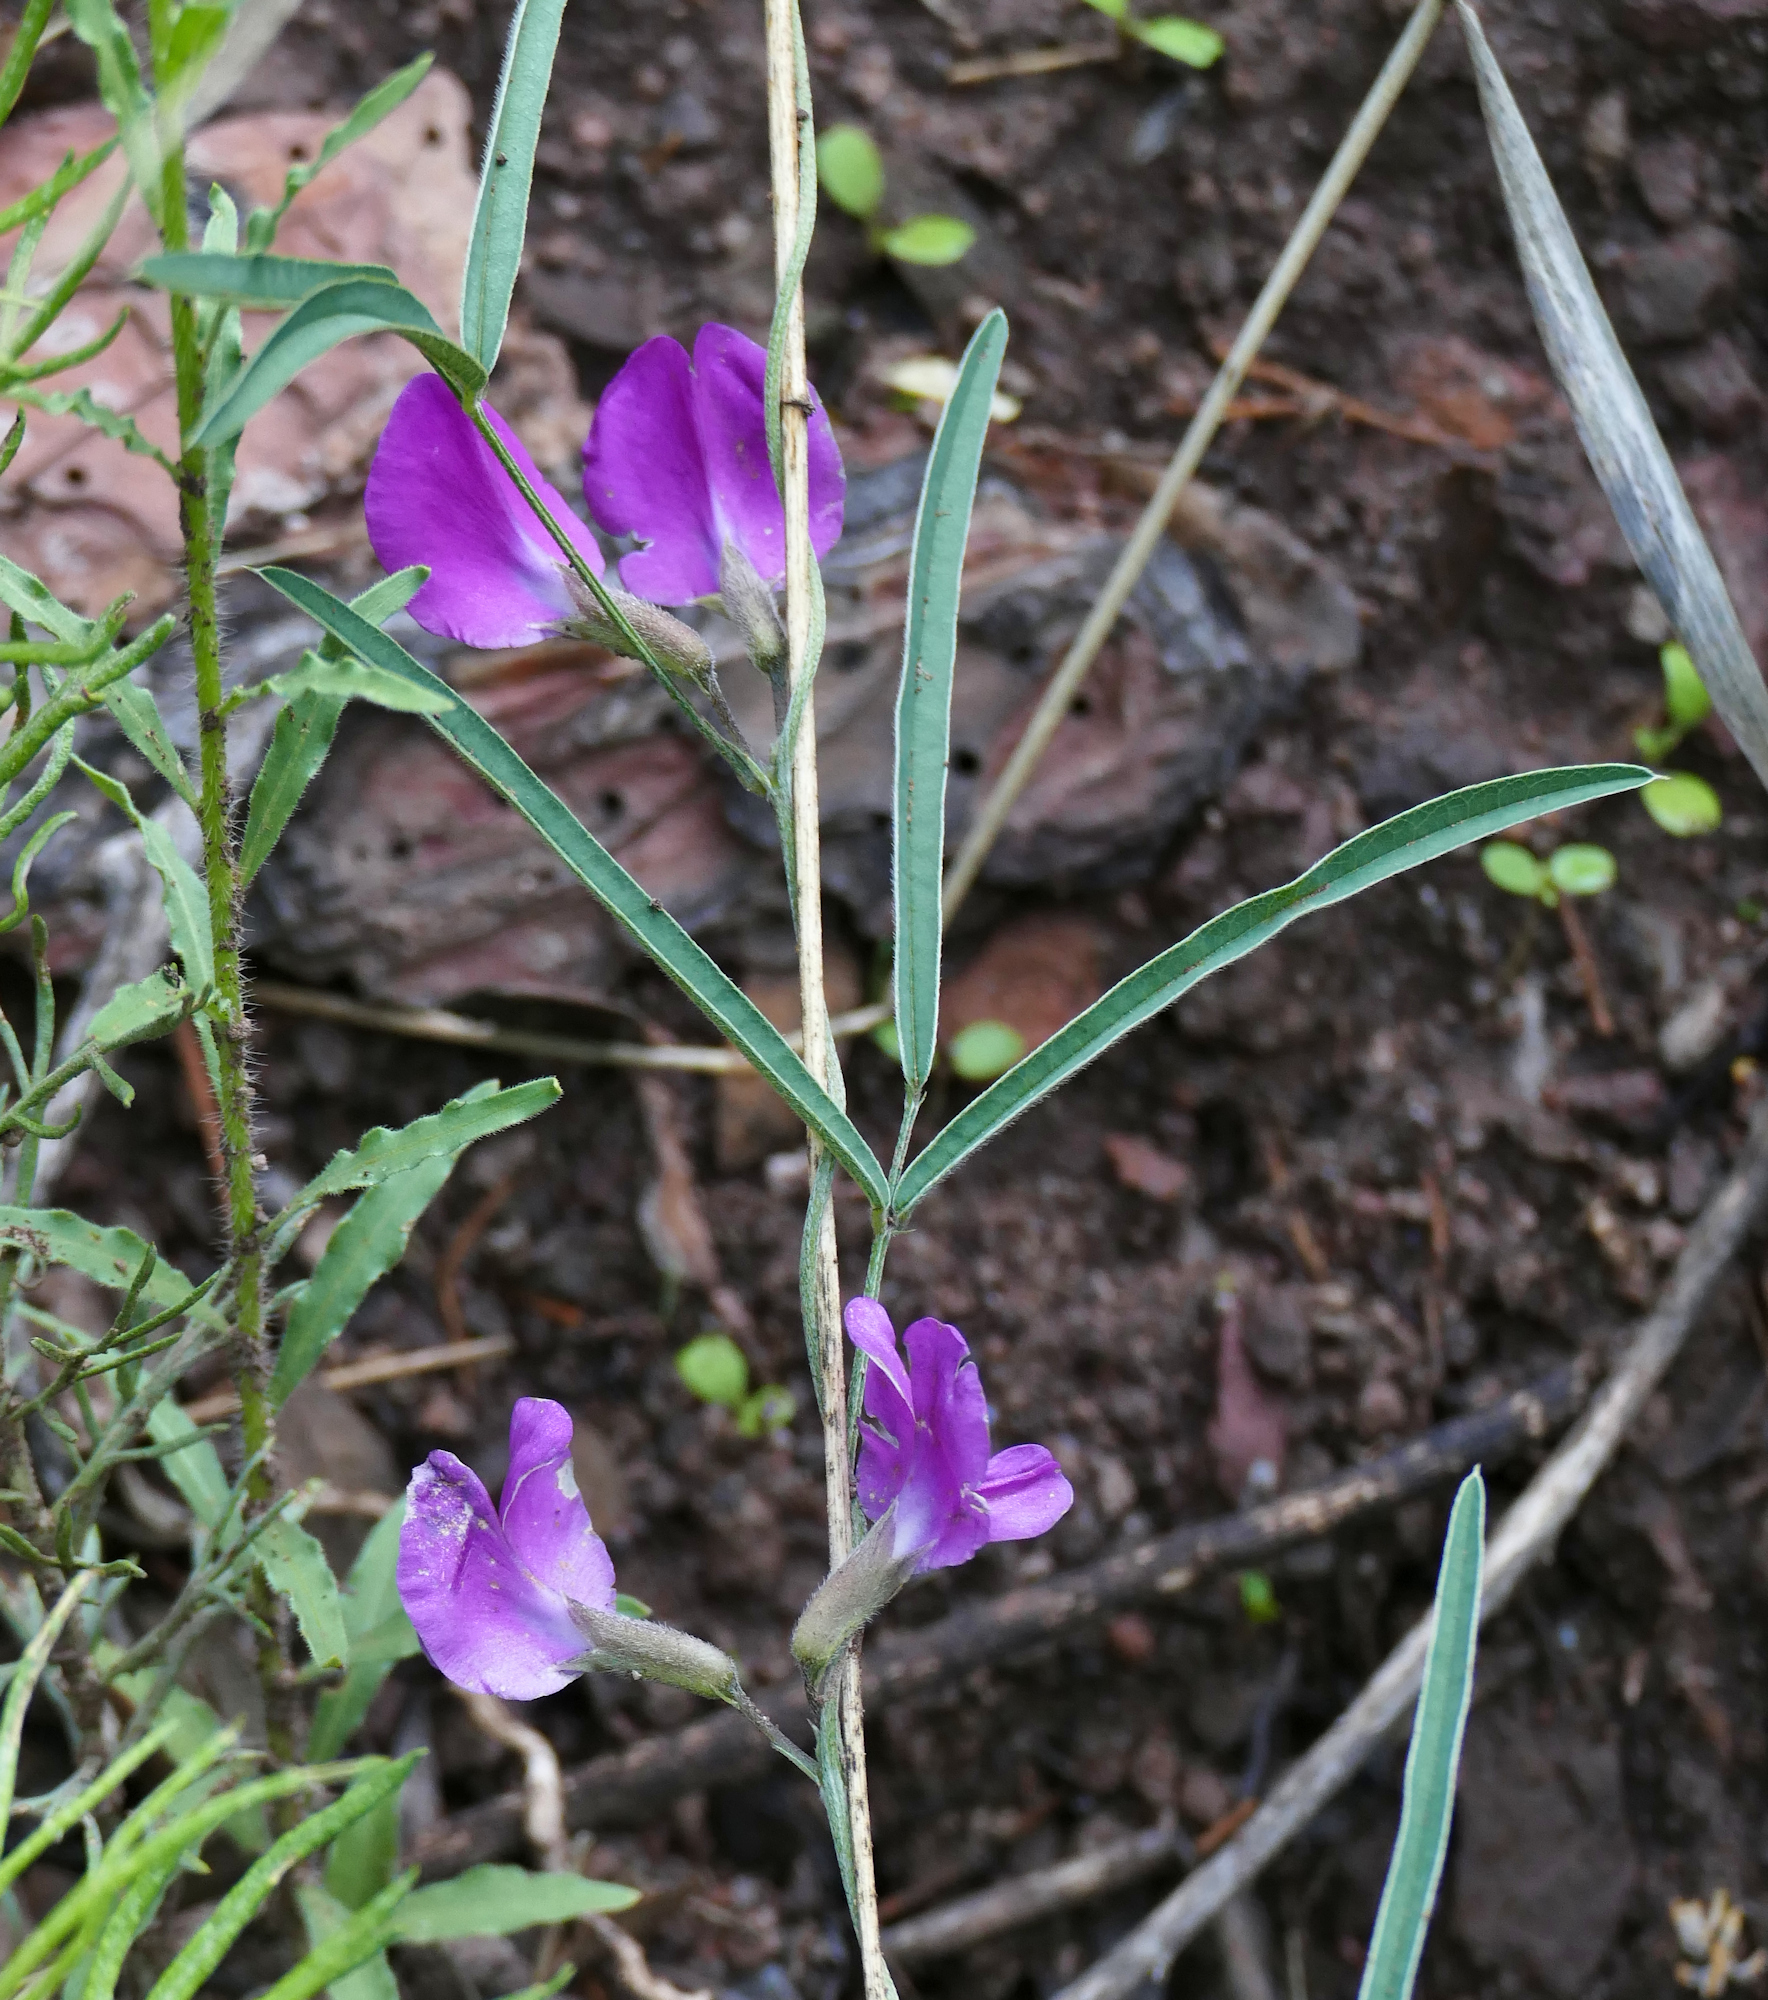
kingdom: Plantae
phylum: Tracheophyta
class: Magnoliopsida
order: Fabales
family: Fabaceae
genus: Cologania
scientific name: Cologania angustifolia
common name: Longleaf cologania
